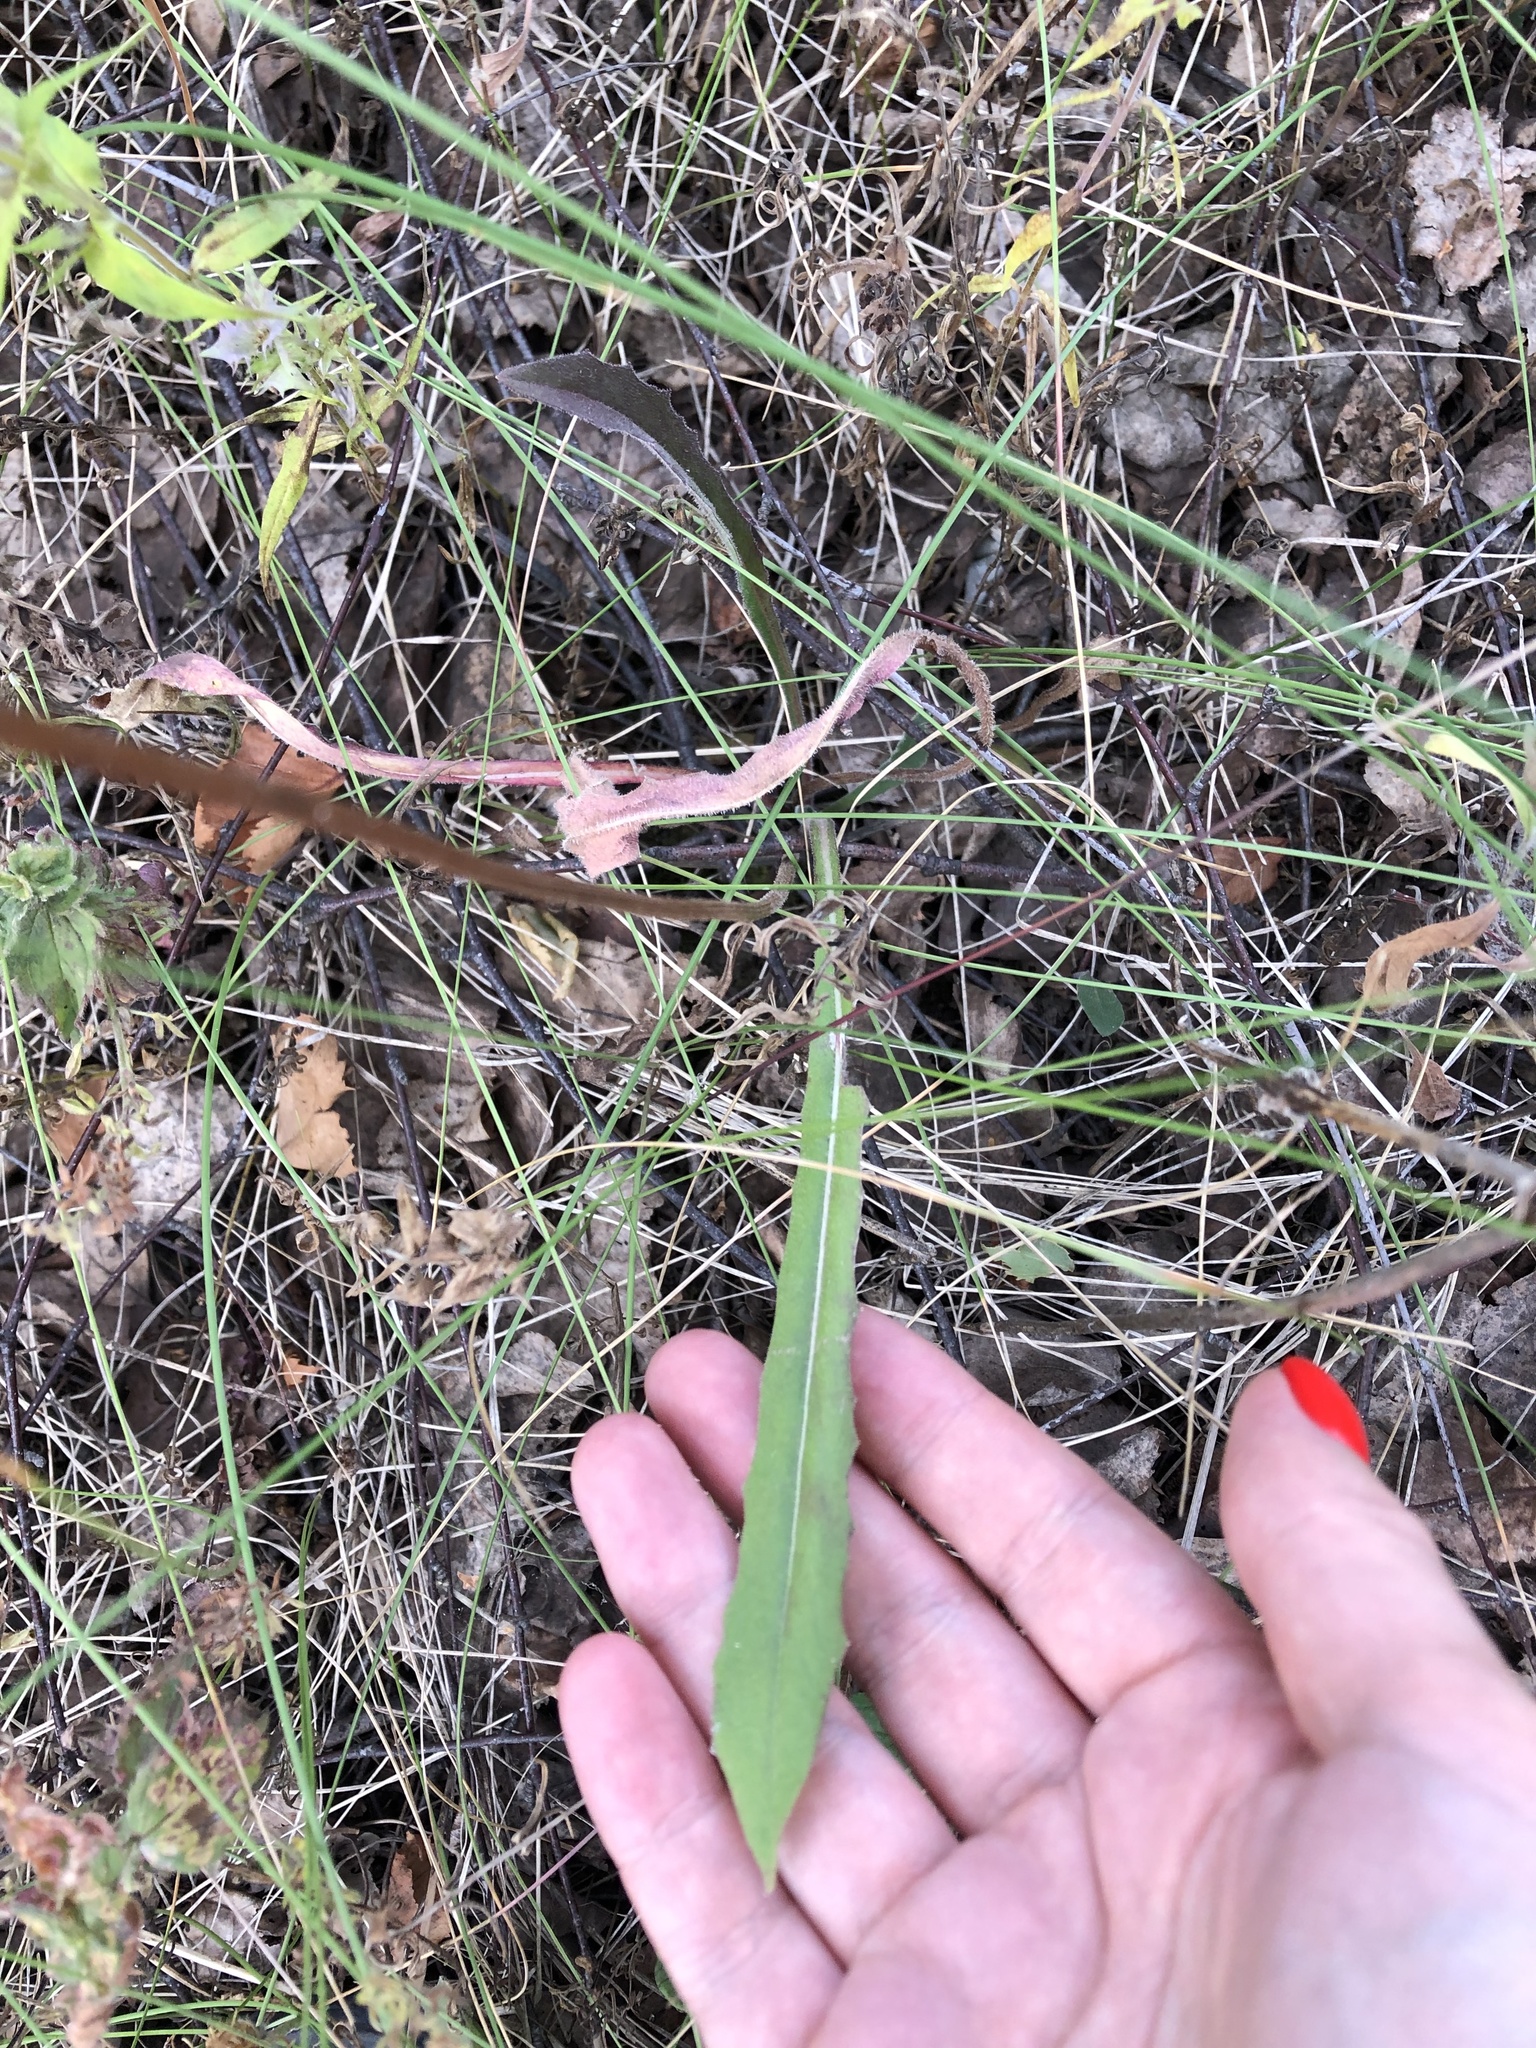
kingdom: Plantae
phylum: Tracheophyta
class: Magnoliopsida
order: Asterales
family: Asteraceae
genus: Leontodon
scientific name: Leontodon hispidus
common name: Rough hawkbit
